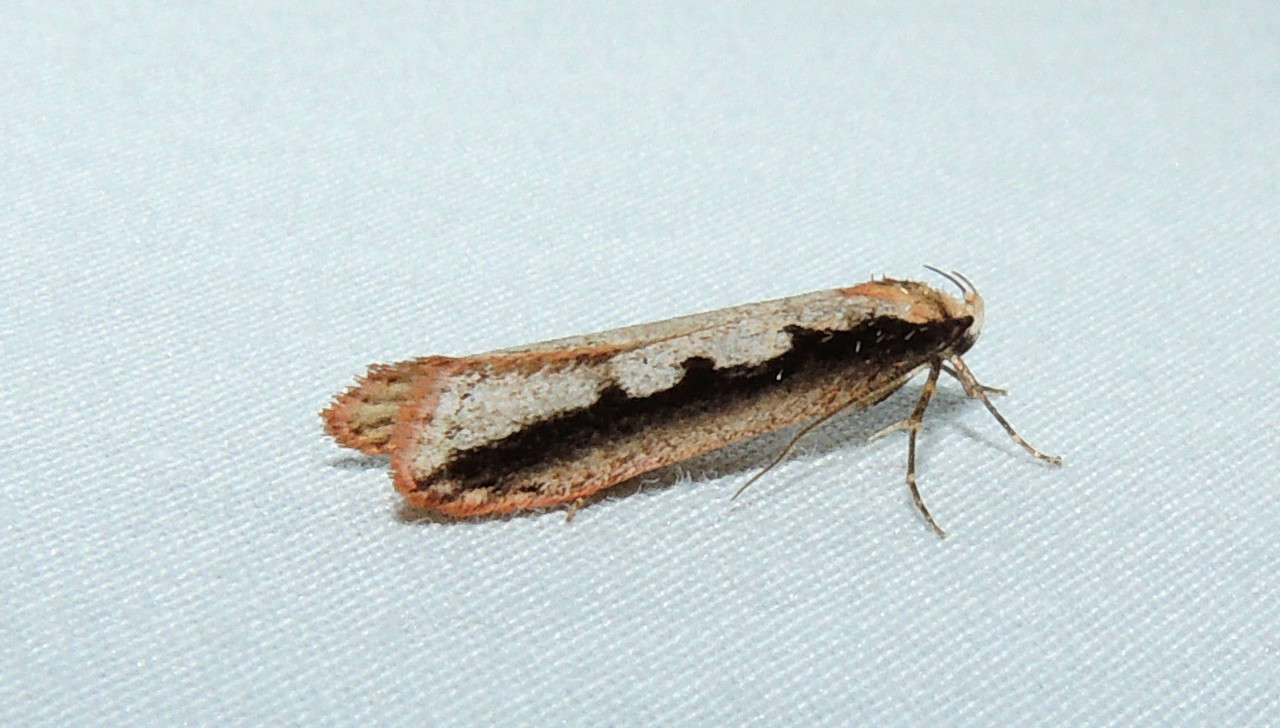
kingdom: Animalia
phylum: Arthropoda
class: Insecta
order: Lepidoptera
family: Oecophoridae
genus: Leptocroca
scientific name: Leptocroca sanguinolenta
